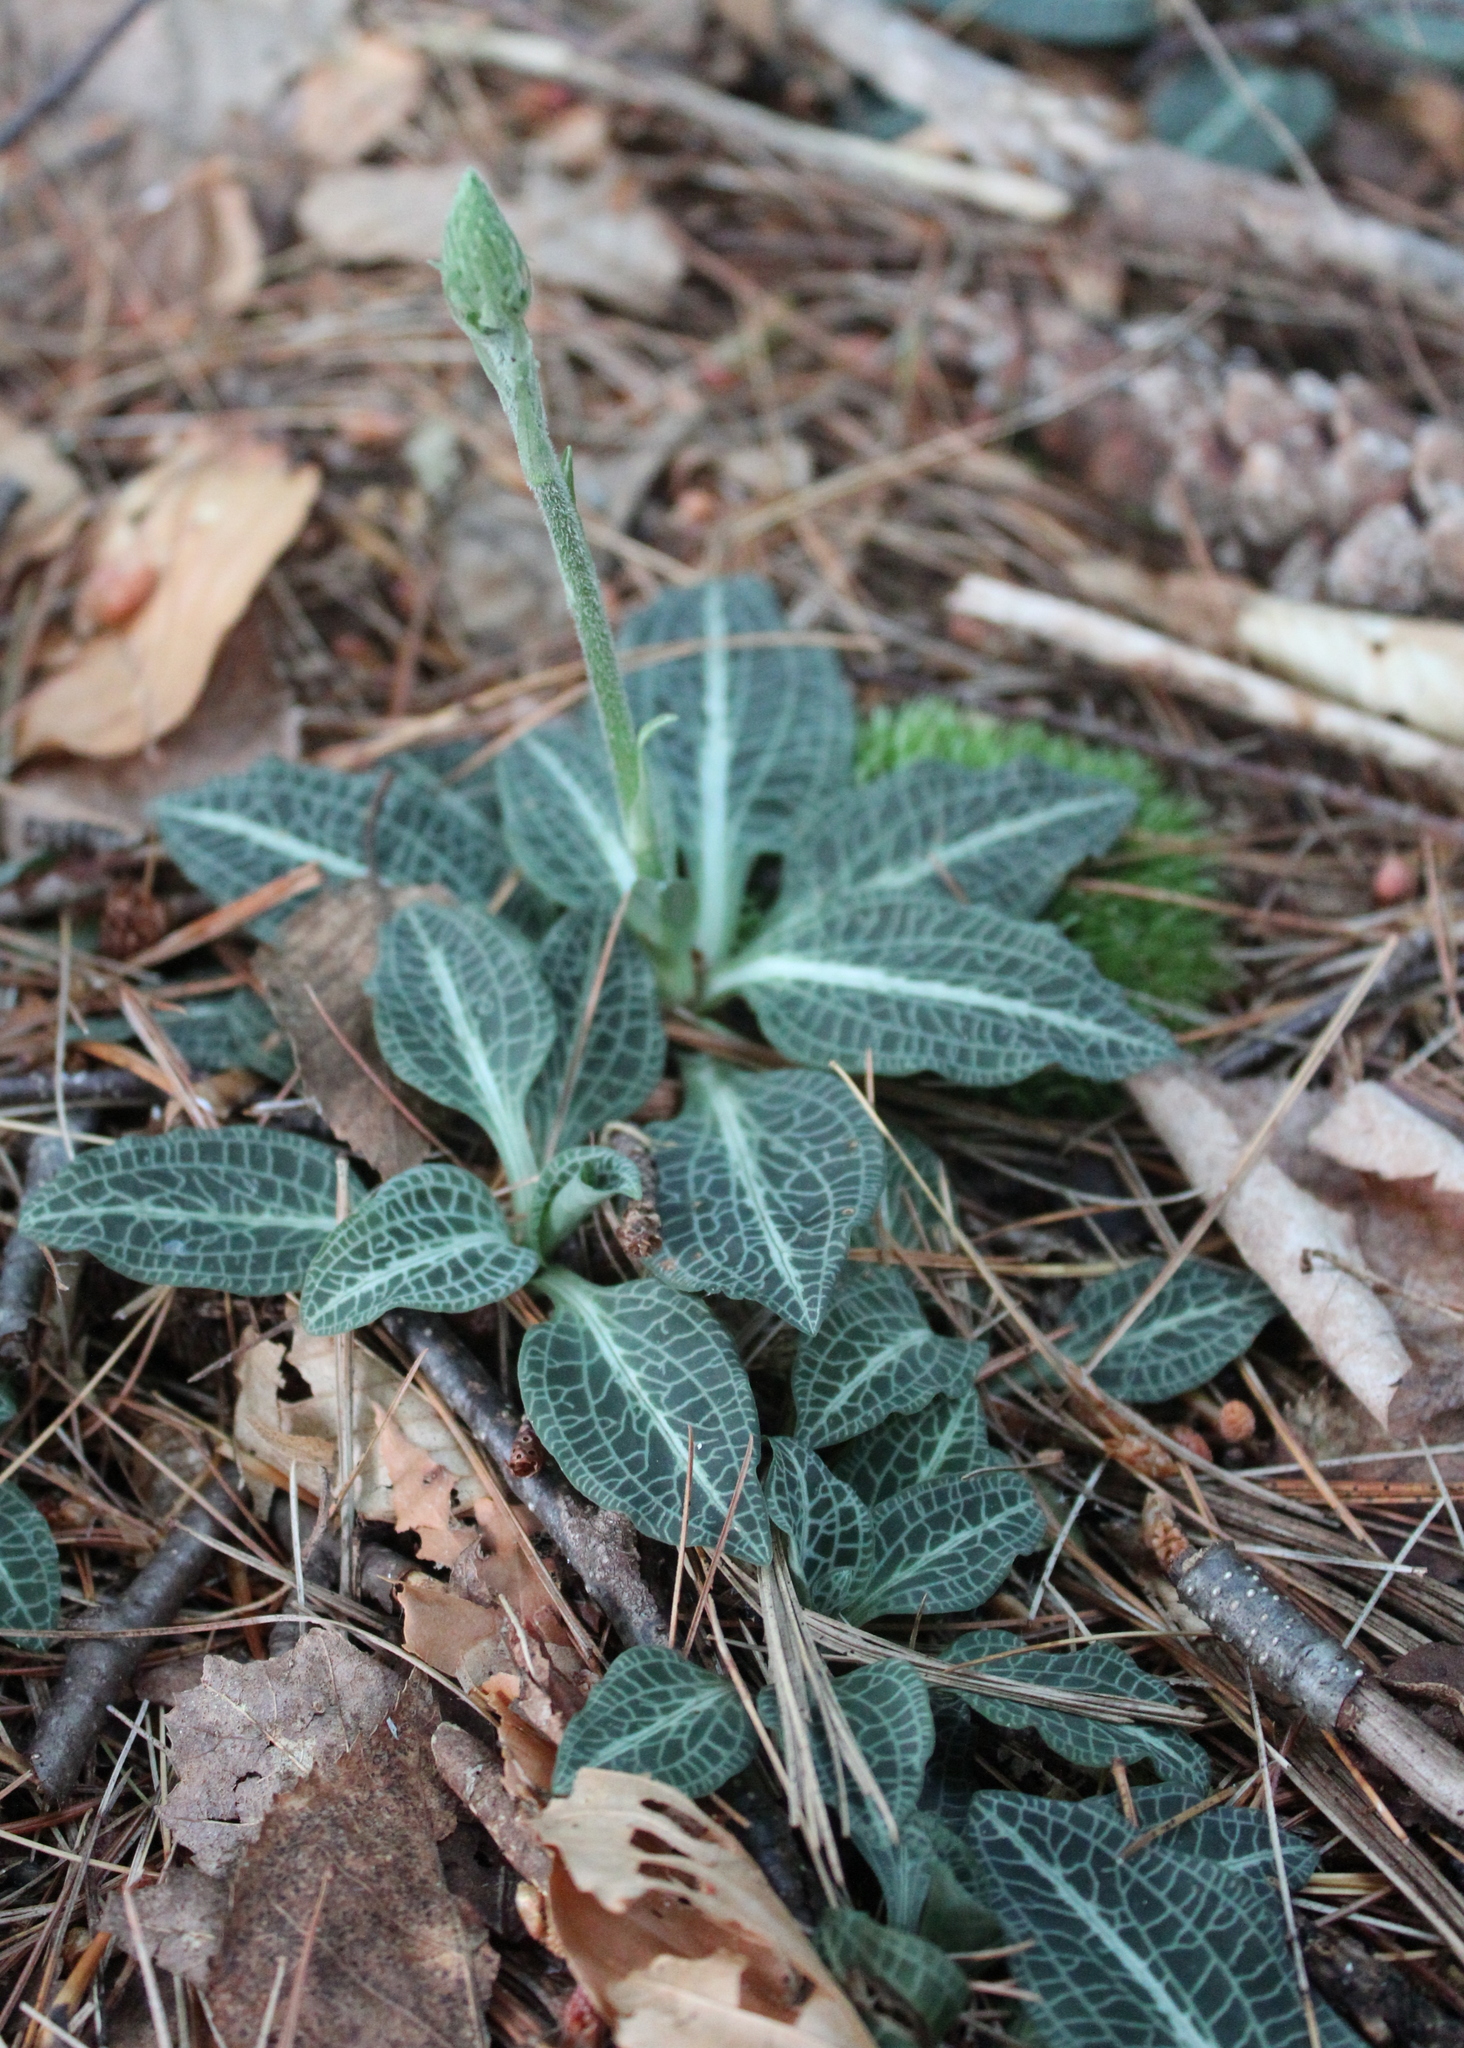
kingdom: Plantae
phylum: Tracheophyta
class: Liliopsida
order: Asparagales
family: Orchidaceae
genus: Goodyera
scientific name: Goodyera pubescens
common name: Downy rattlesnake-plantain
